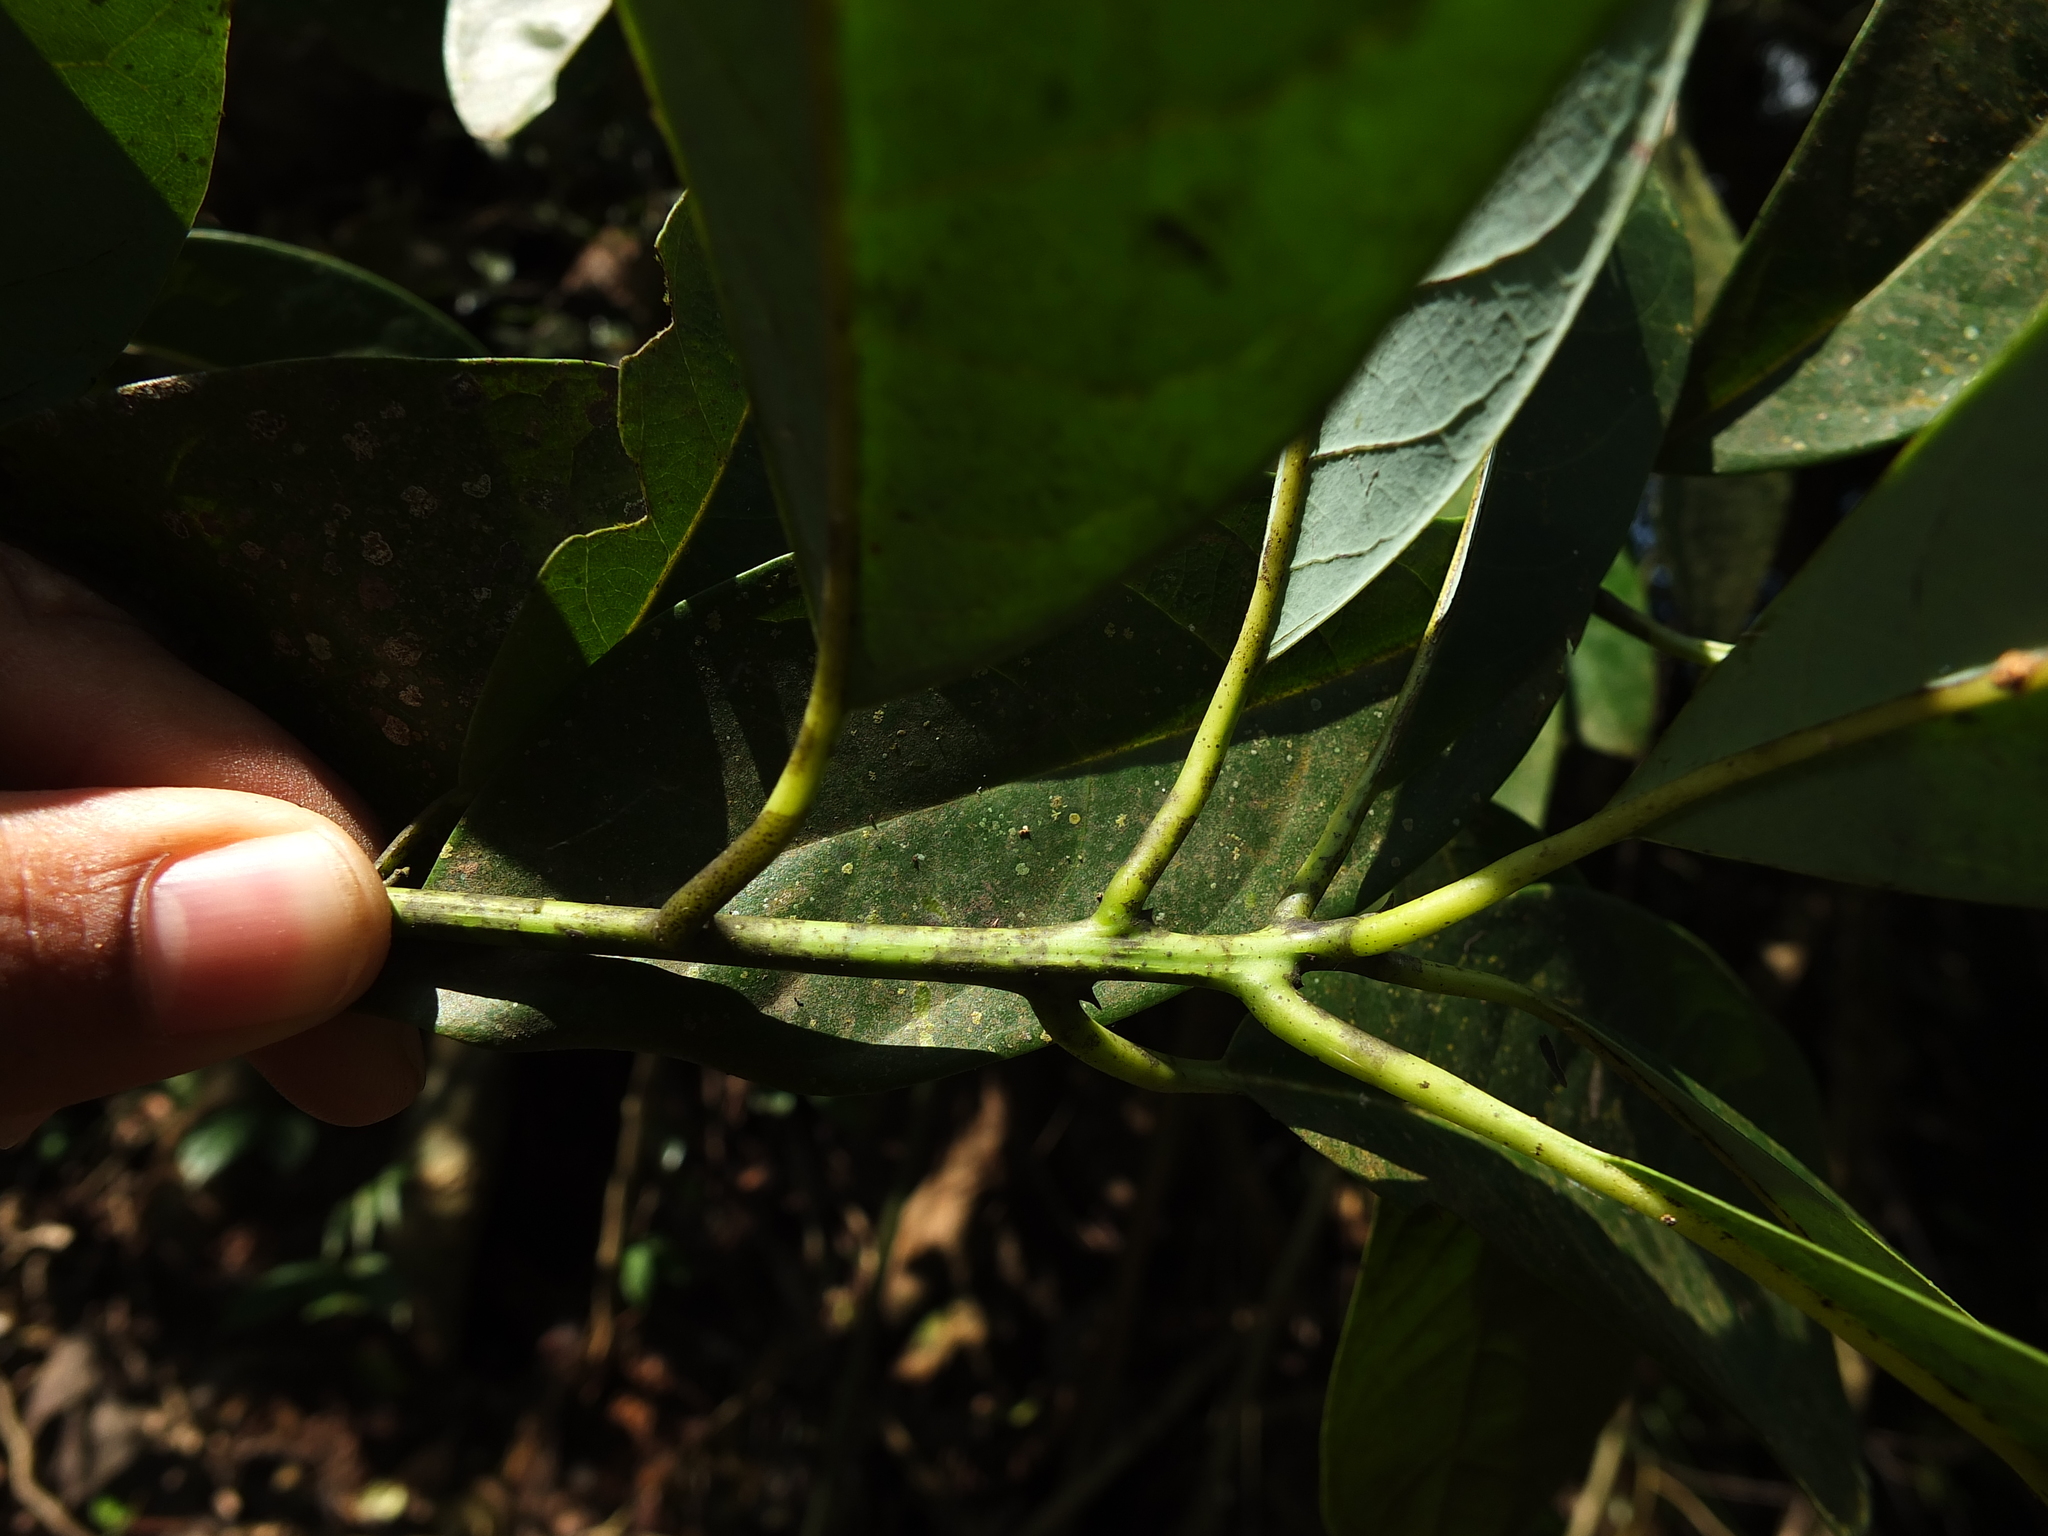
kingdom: Plantae
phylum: Tracheophyta
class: Magnoliopsida
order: Laurales
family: Lauraceae
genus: Machilus
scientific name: Machilus glaucescens
